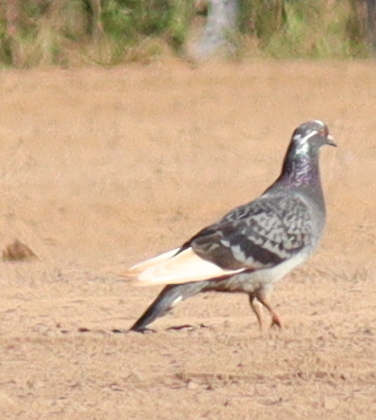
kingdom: Animalia
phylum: Chordata
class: Aves
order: Columbiformes
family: Columbidae
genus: Columba
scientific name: Columba livia
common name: Rock pigeon
